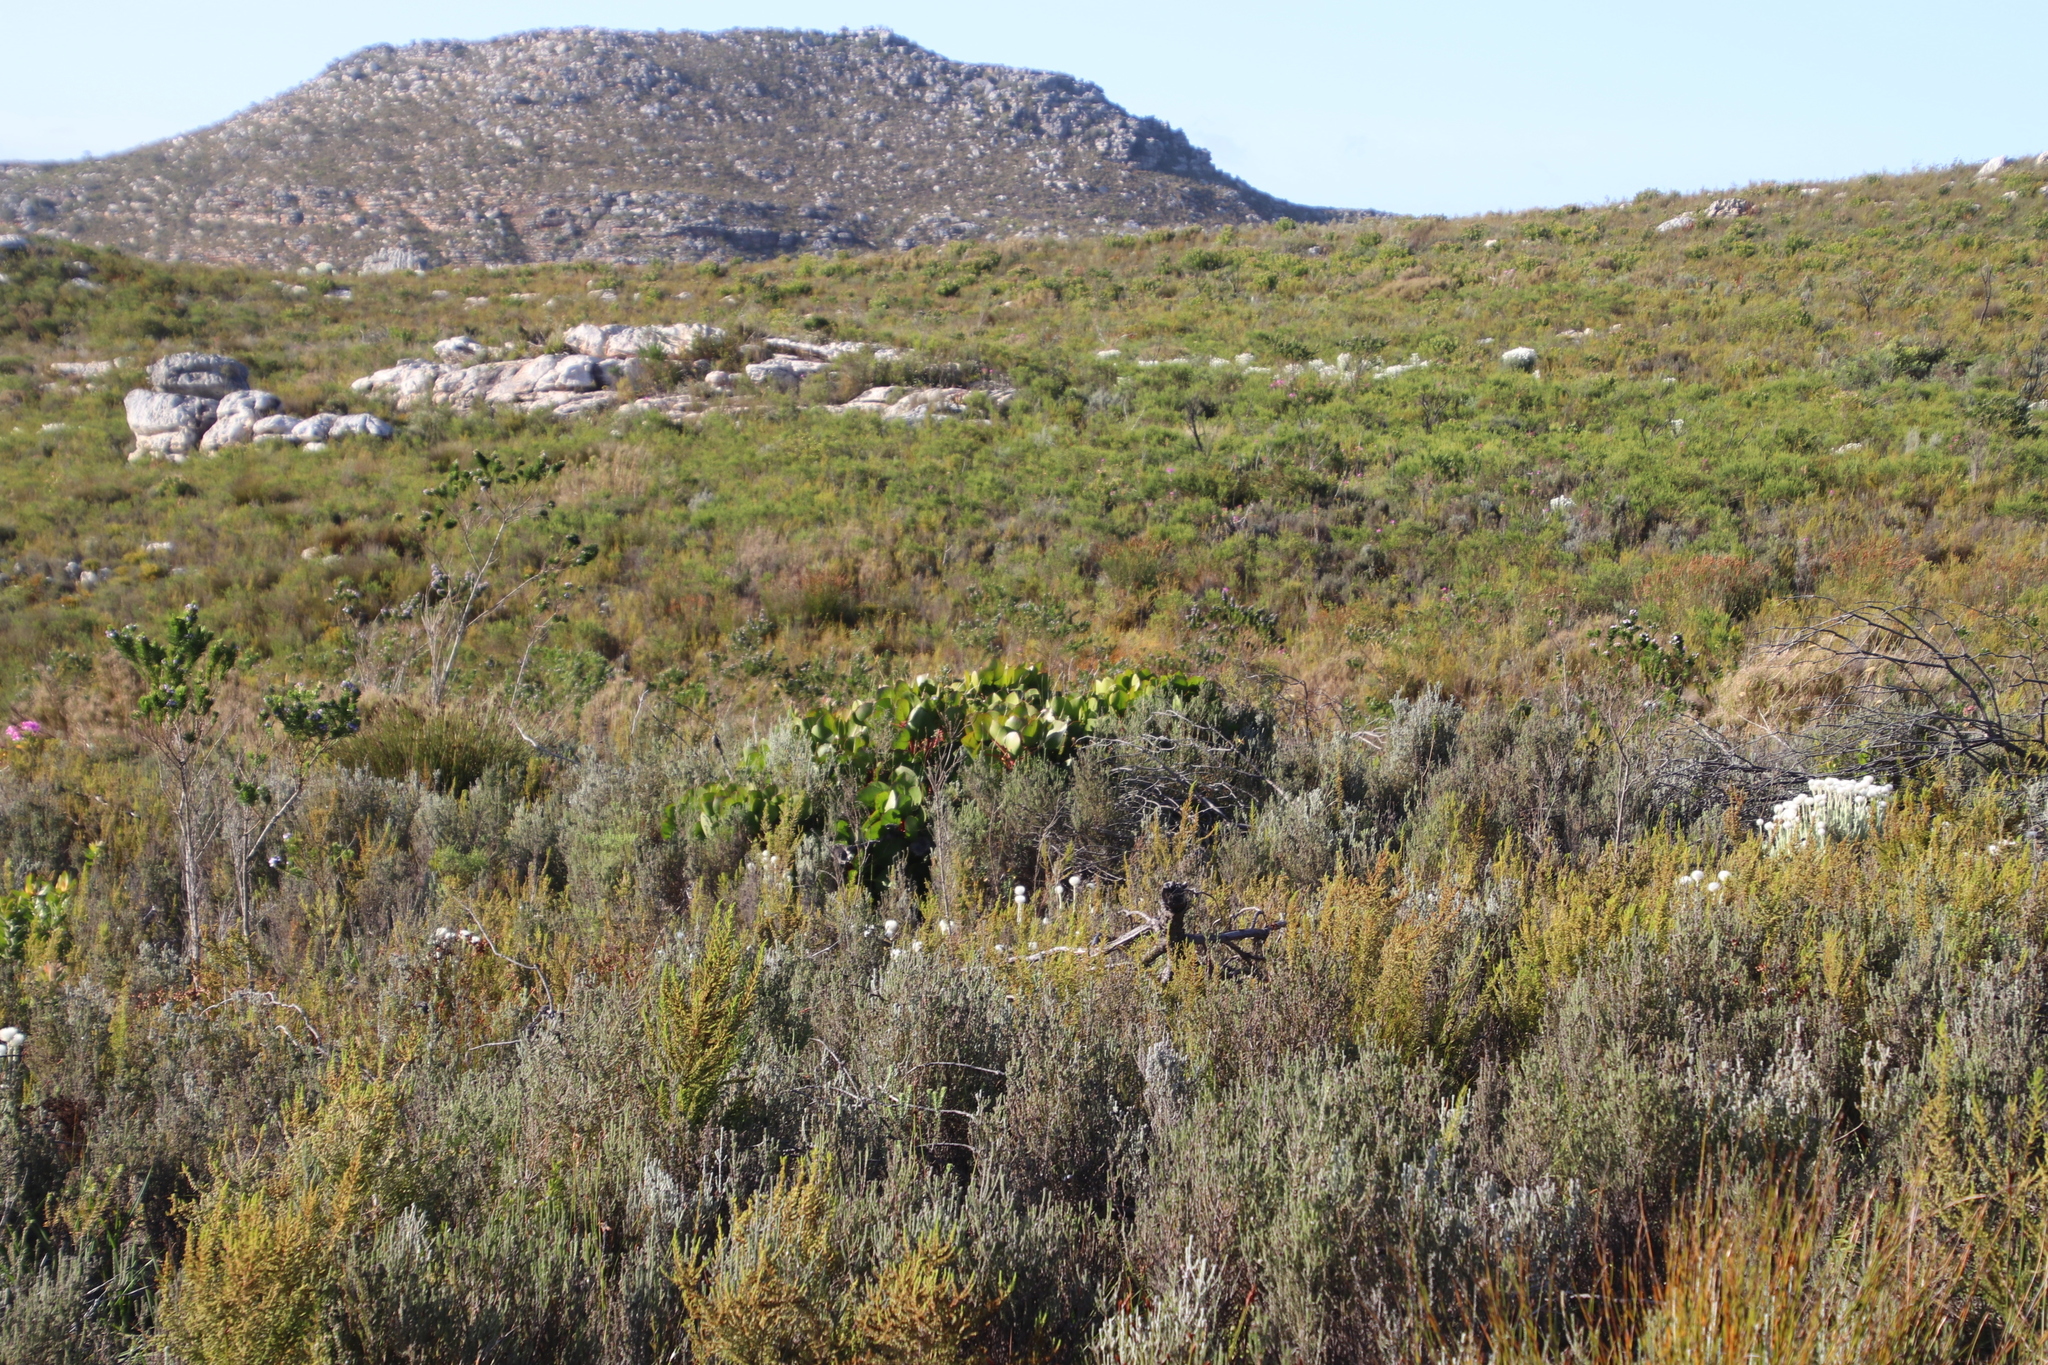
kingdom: Plantae
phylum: Tracheophyta
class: Magnoliopsida
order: Proteales
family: Proteaceae
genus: Protea
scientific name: Protea cynaroides
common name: King protea
